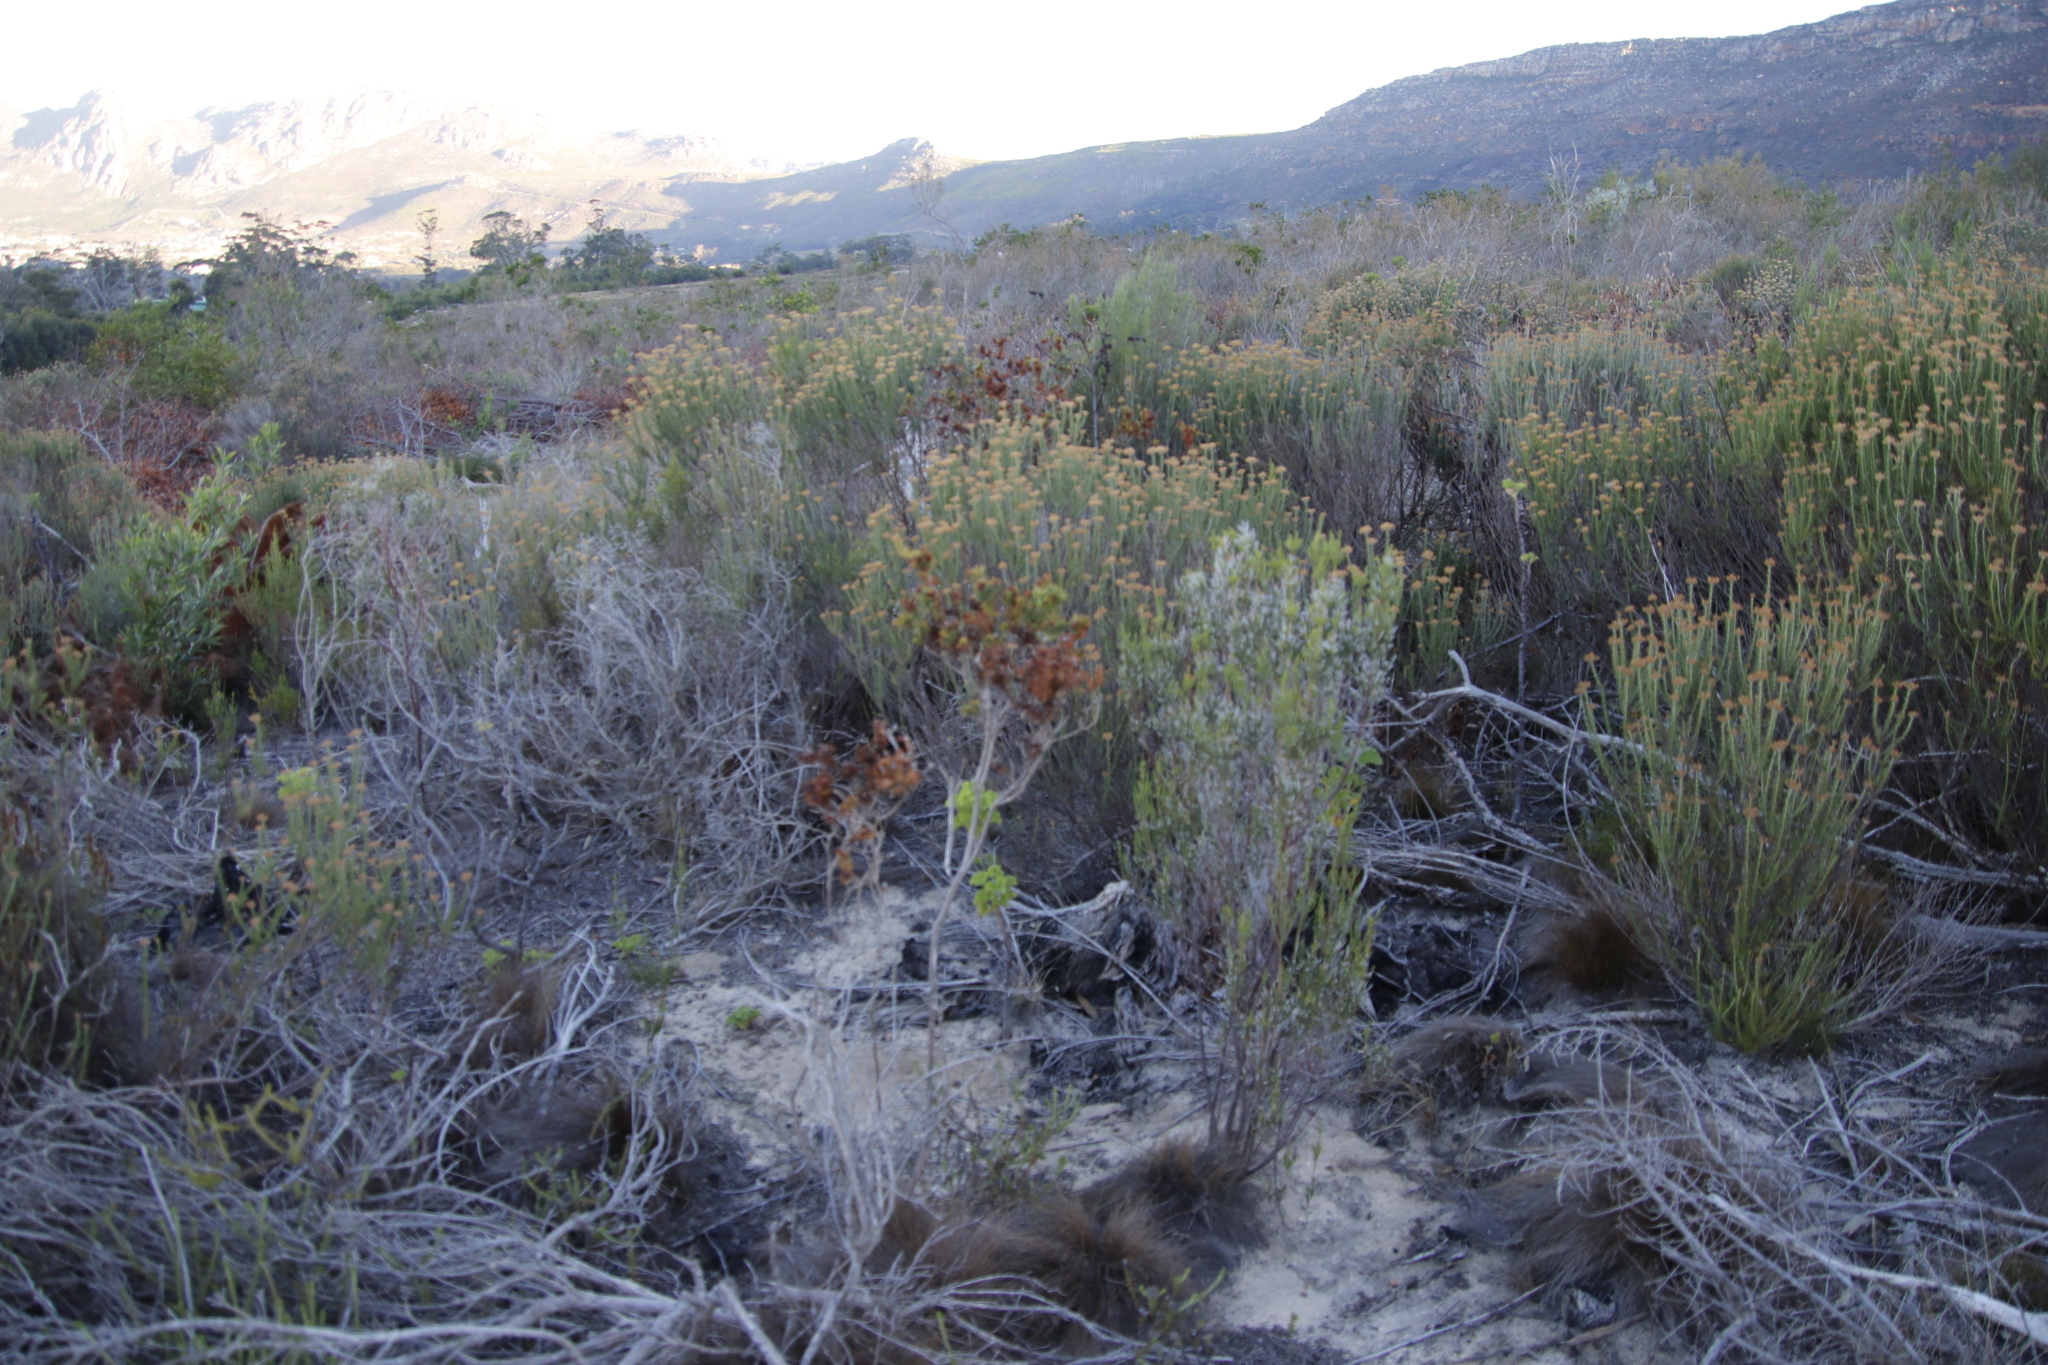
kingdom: Plantae
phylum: Tracheophyta
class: Magnoliopsida
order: Fabales
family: Fabaceae
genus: Aspalathus
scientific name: Aspalathus cordata
